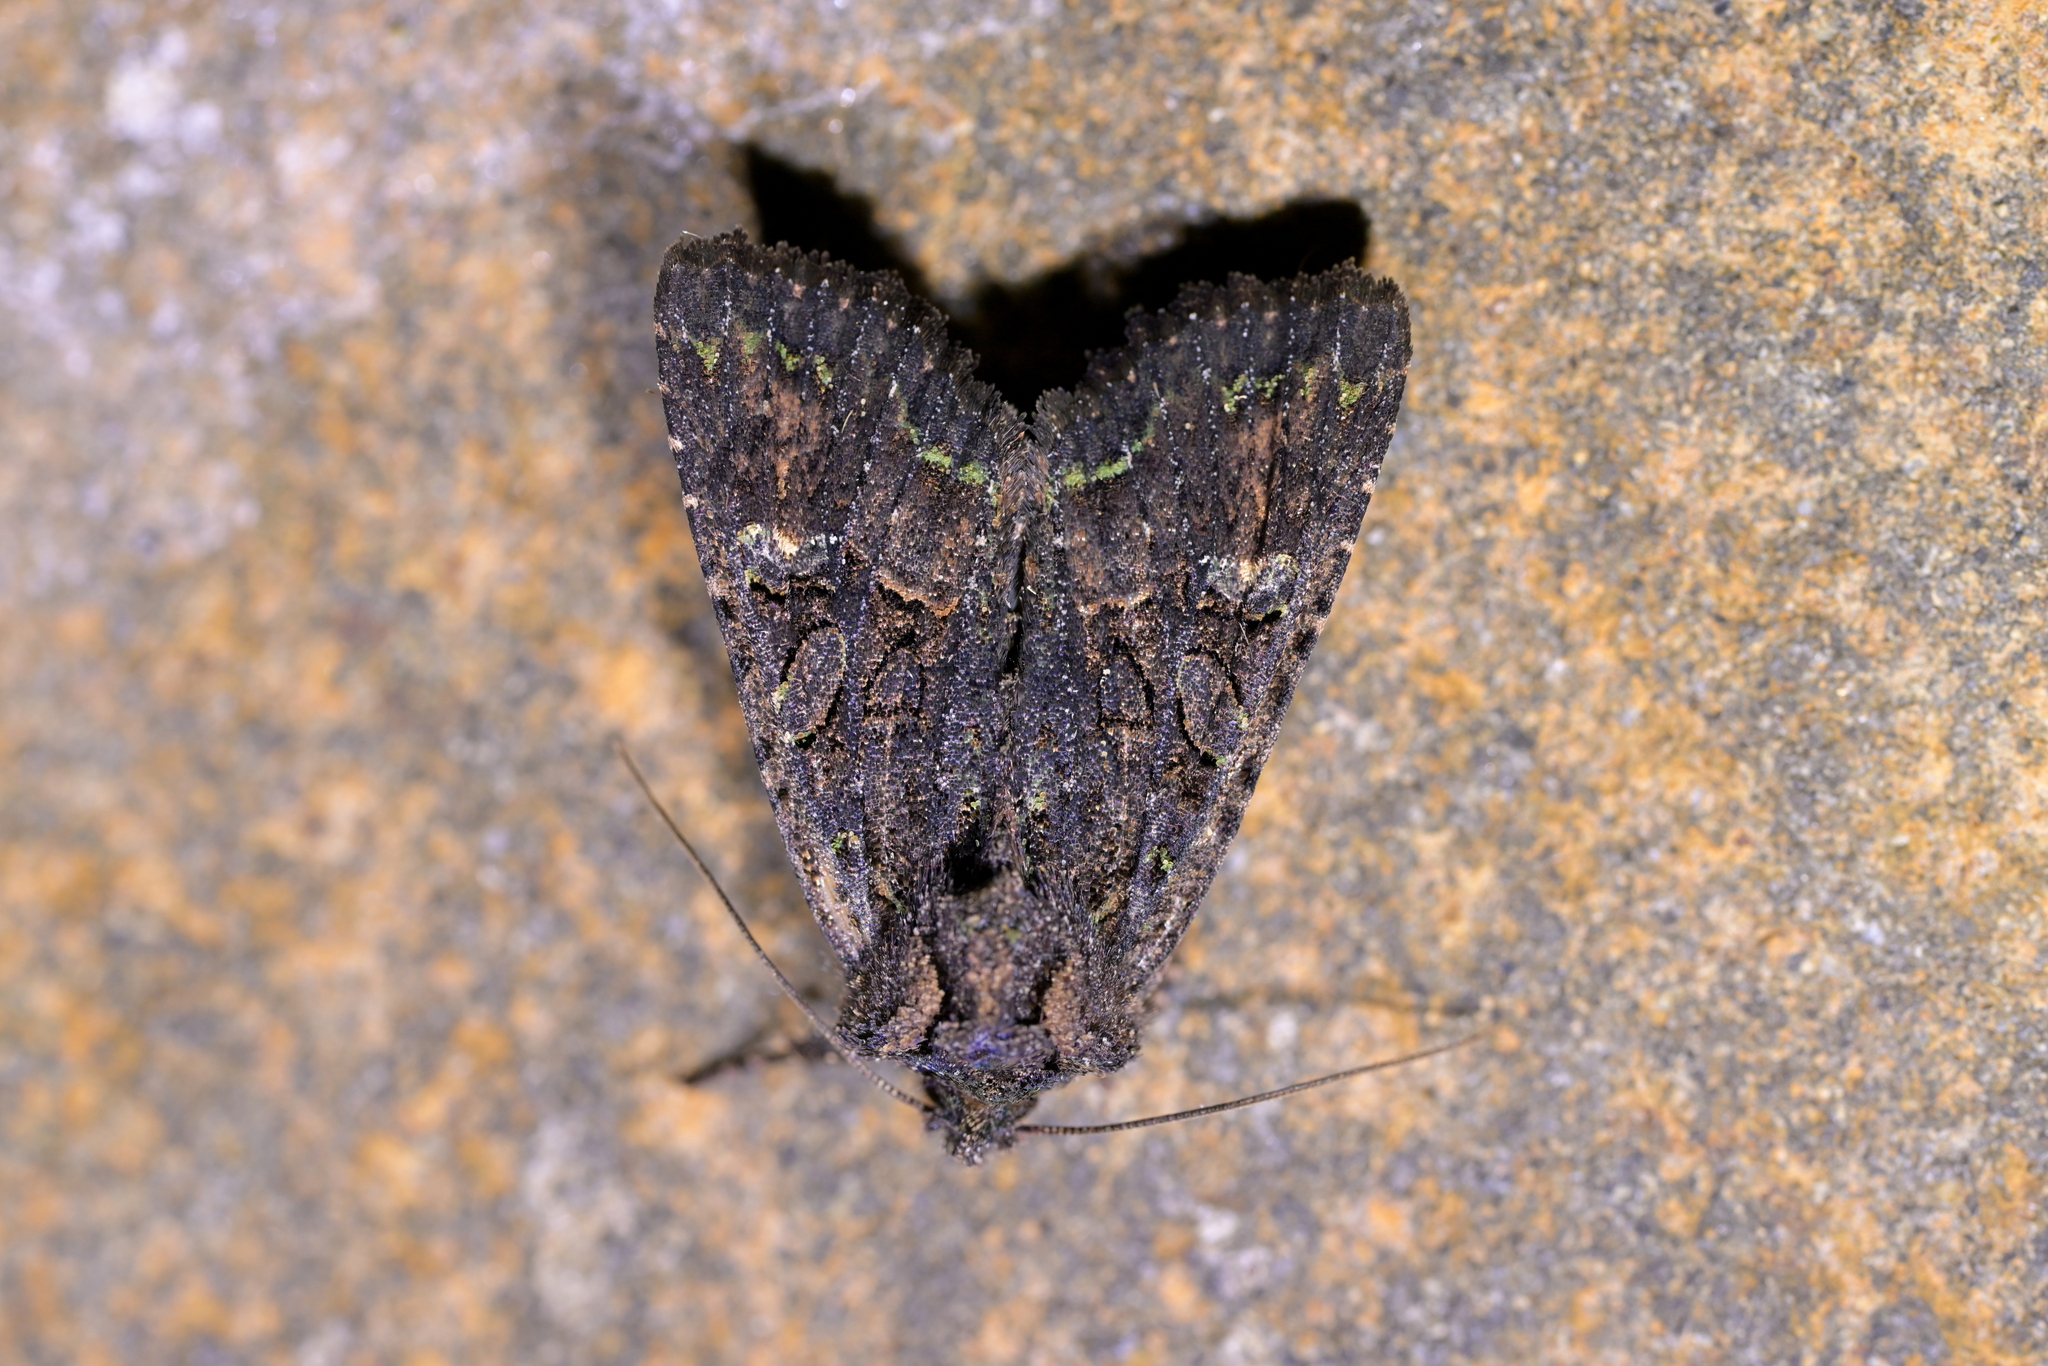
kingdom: Animalia
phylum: Arthropoda
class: Insecta
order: Lepidoptera
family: Noctuidae
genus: Meterana
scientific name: Meterana ochthistis
